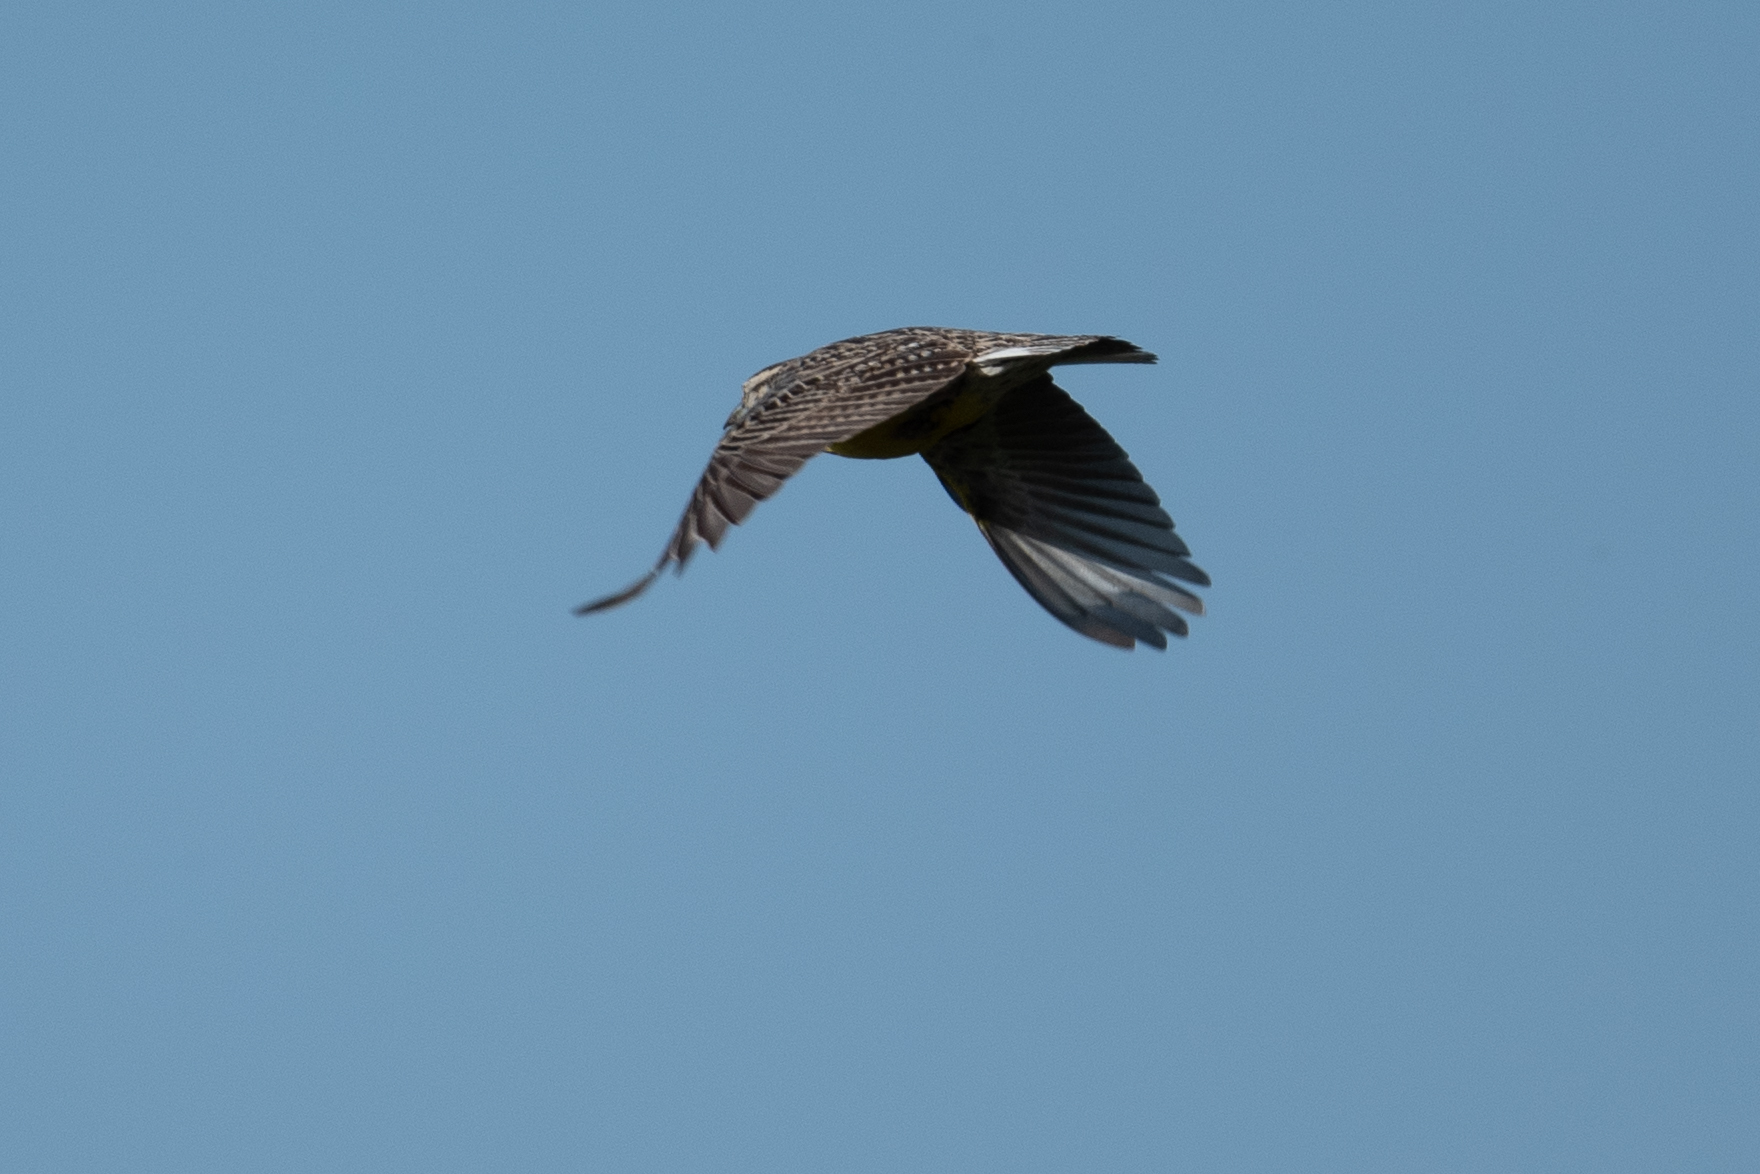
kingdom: Animalia
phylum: Chordata
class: Aves
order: Passeriformes
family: Icteridae
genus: Sturnella
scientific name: Sturnella neglecta
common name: Western meadowlark
